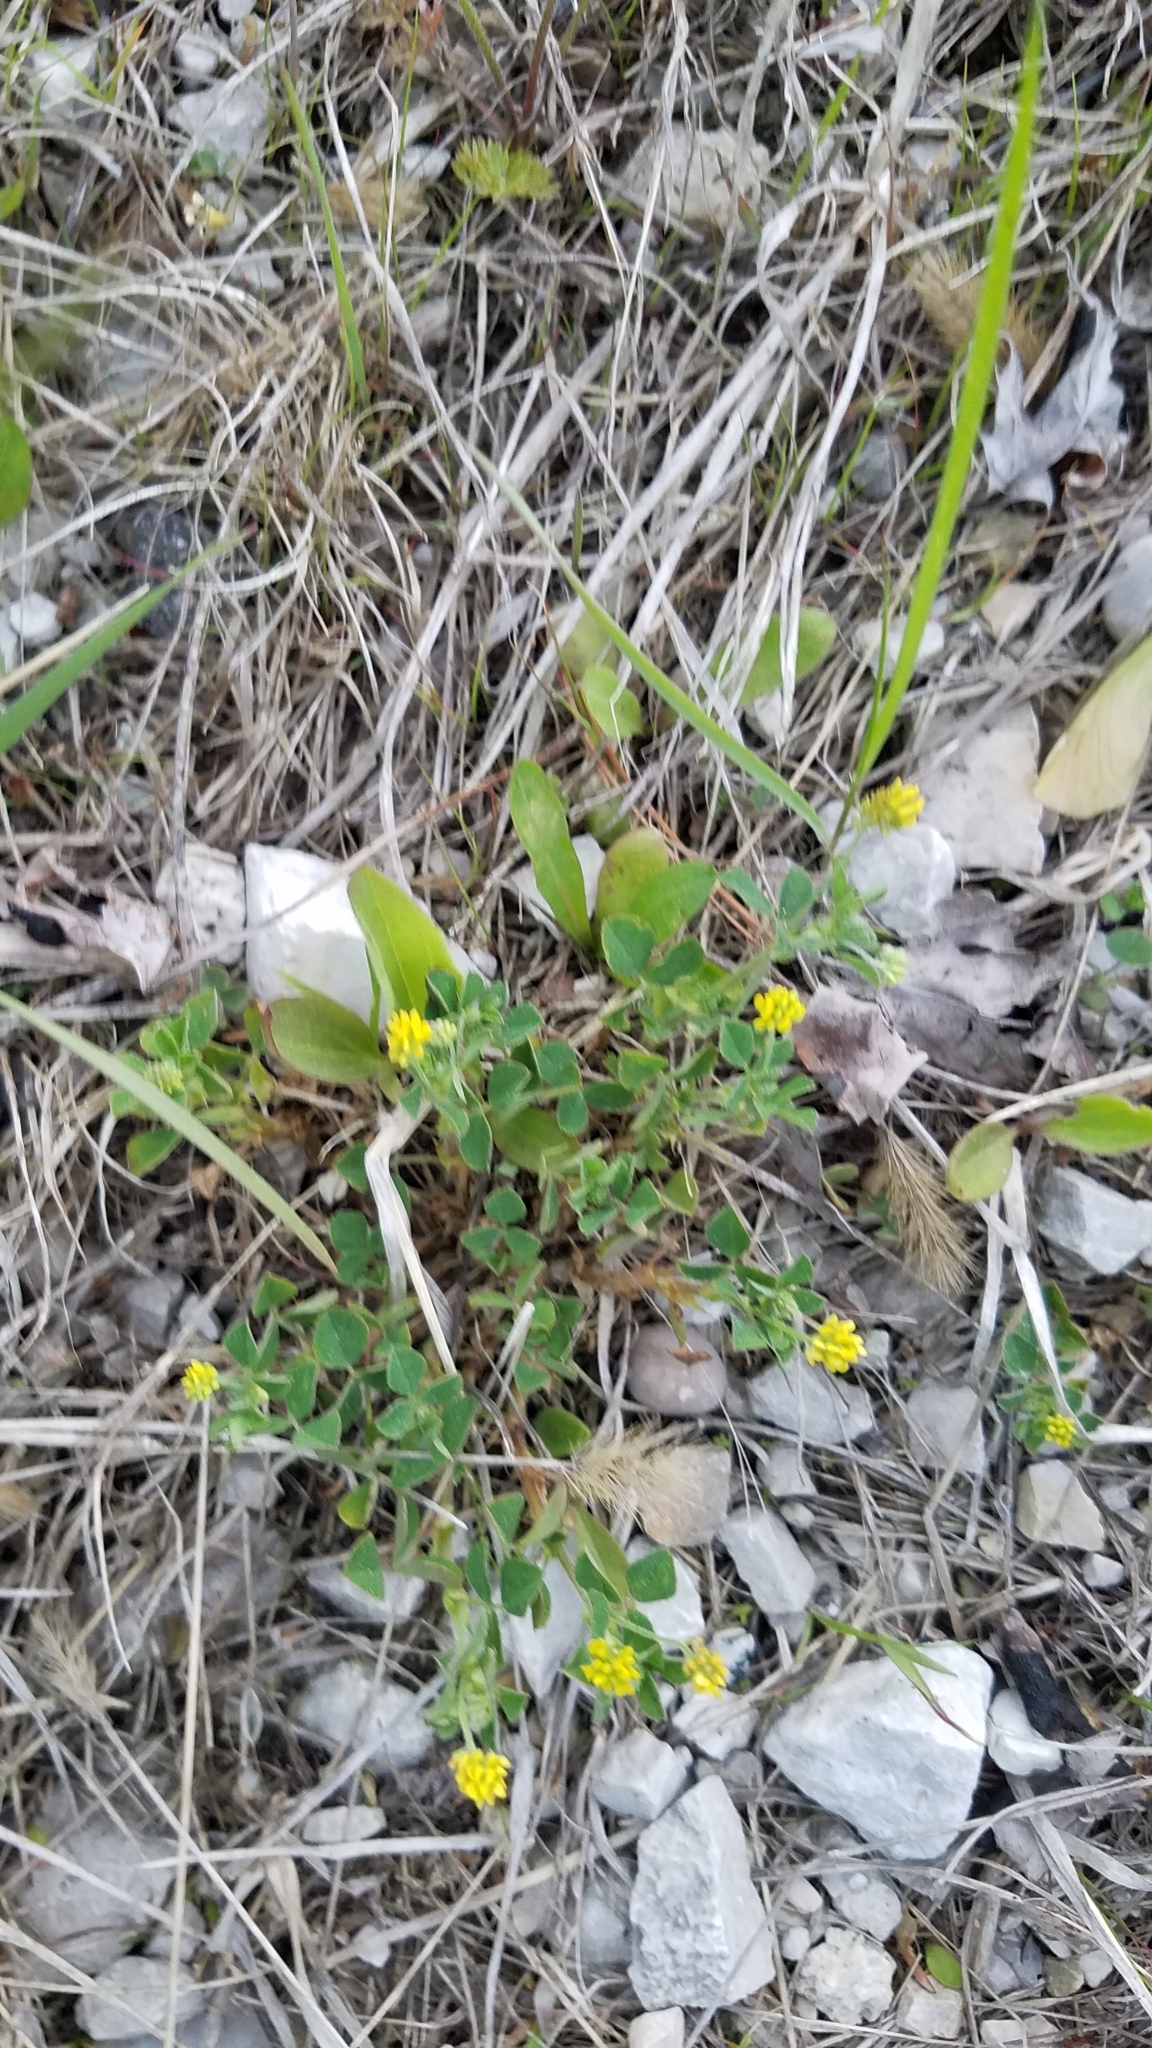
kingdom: Plantae
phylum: Tracheophyta
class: Magnoliopsida
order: Fabales
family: Fabaceae
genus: Medicago
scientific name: Medicago lupulina
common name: Black medick
